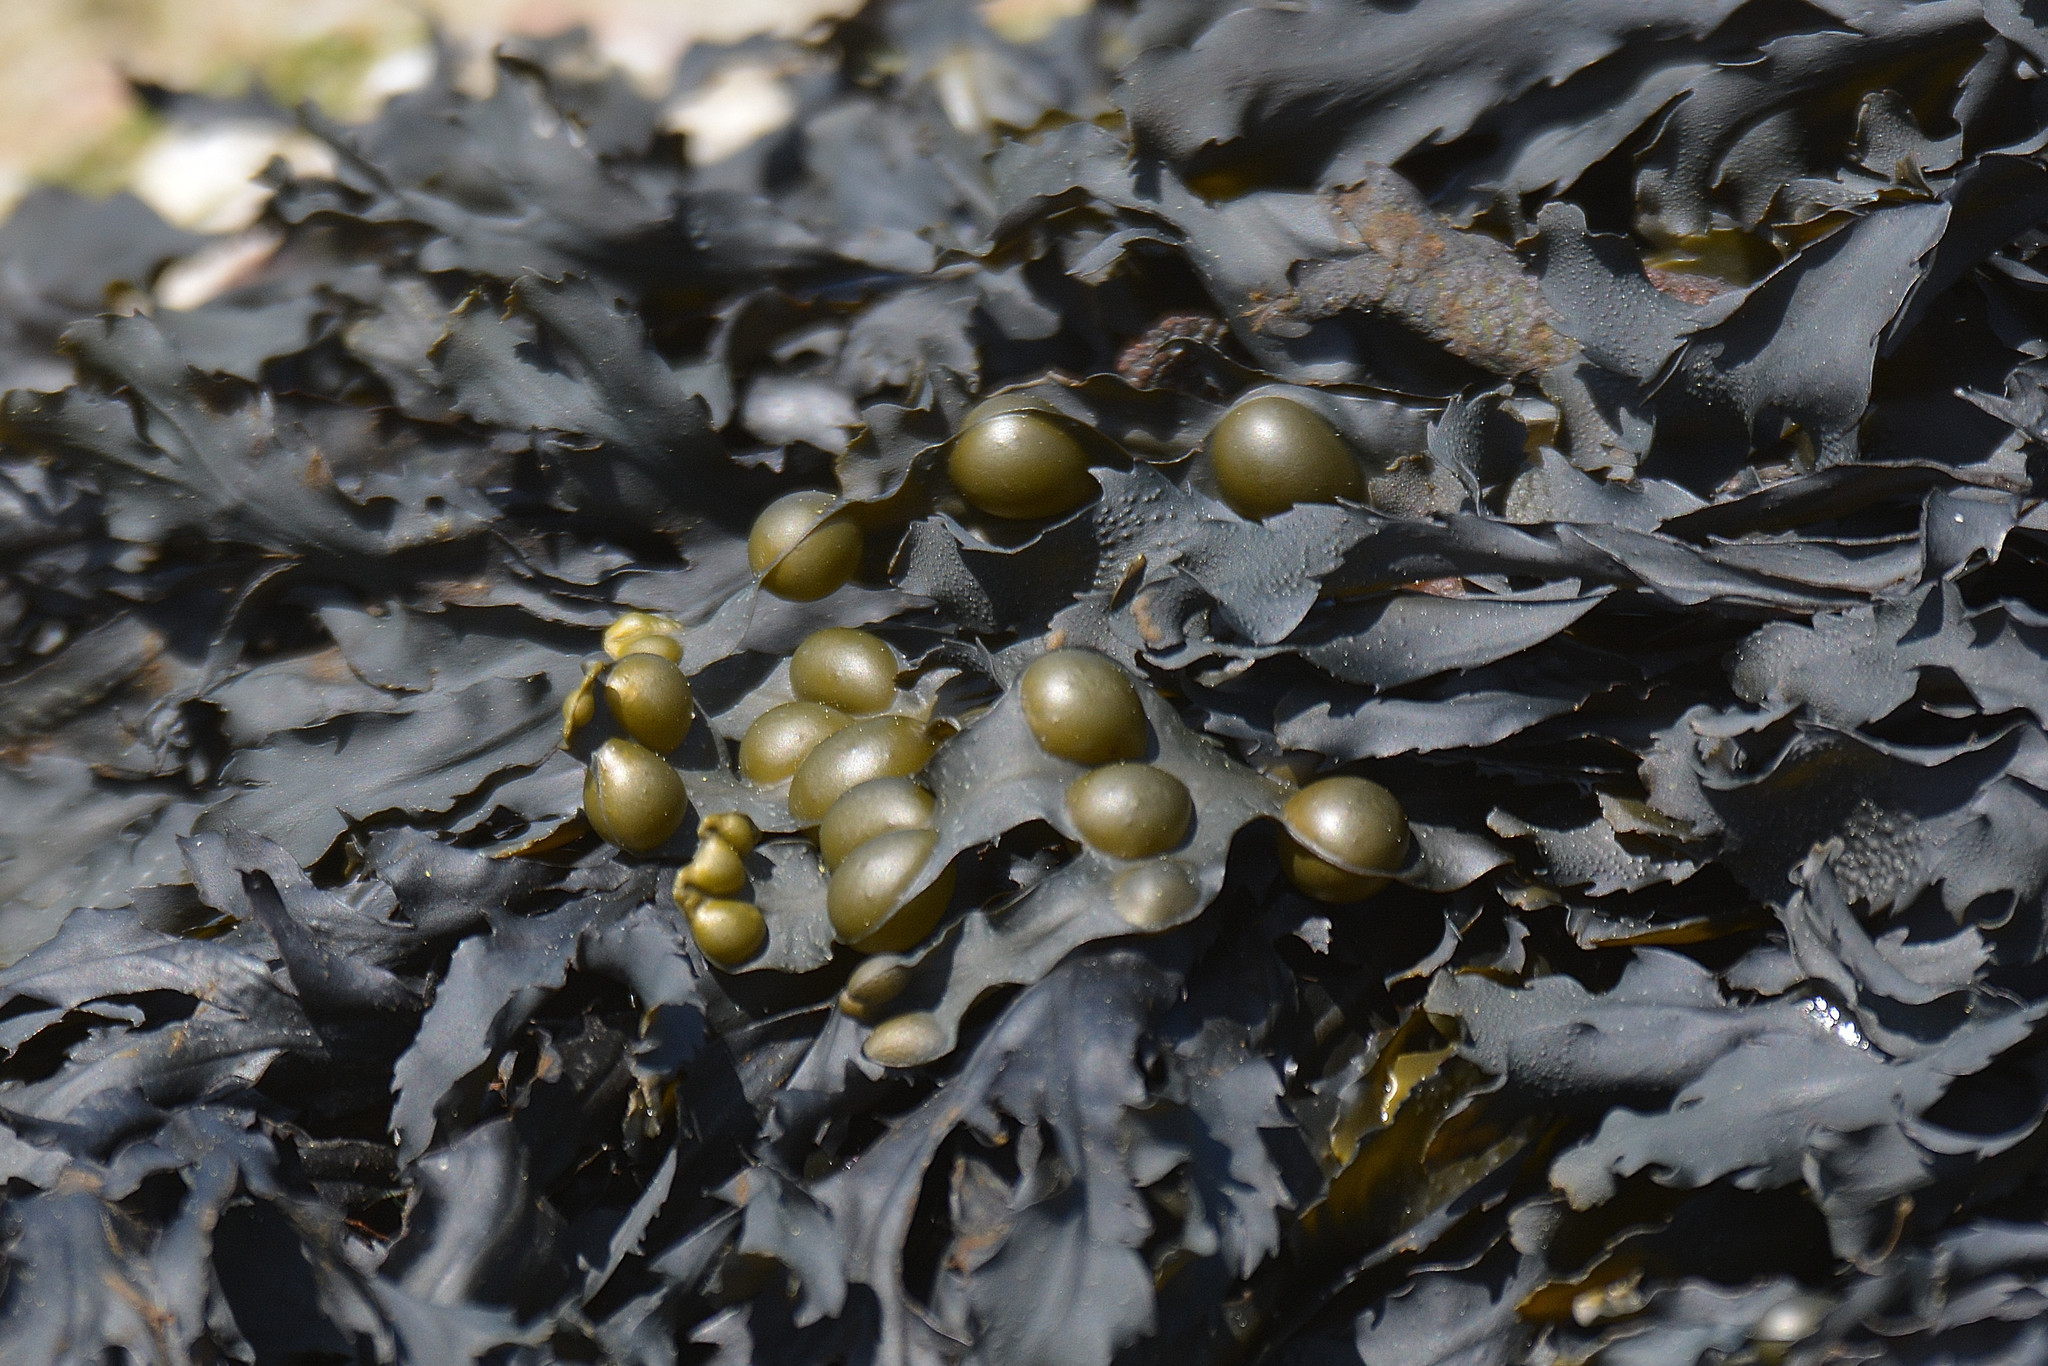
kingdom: Chromista
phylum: Ochrophyta
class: Phaeophyceae
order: Fucales
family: Fucaceae
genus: Fucus
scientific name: Fucus vesiculosus
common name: Bladder wrack
